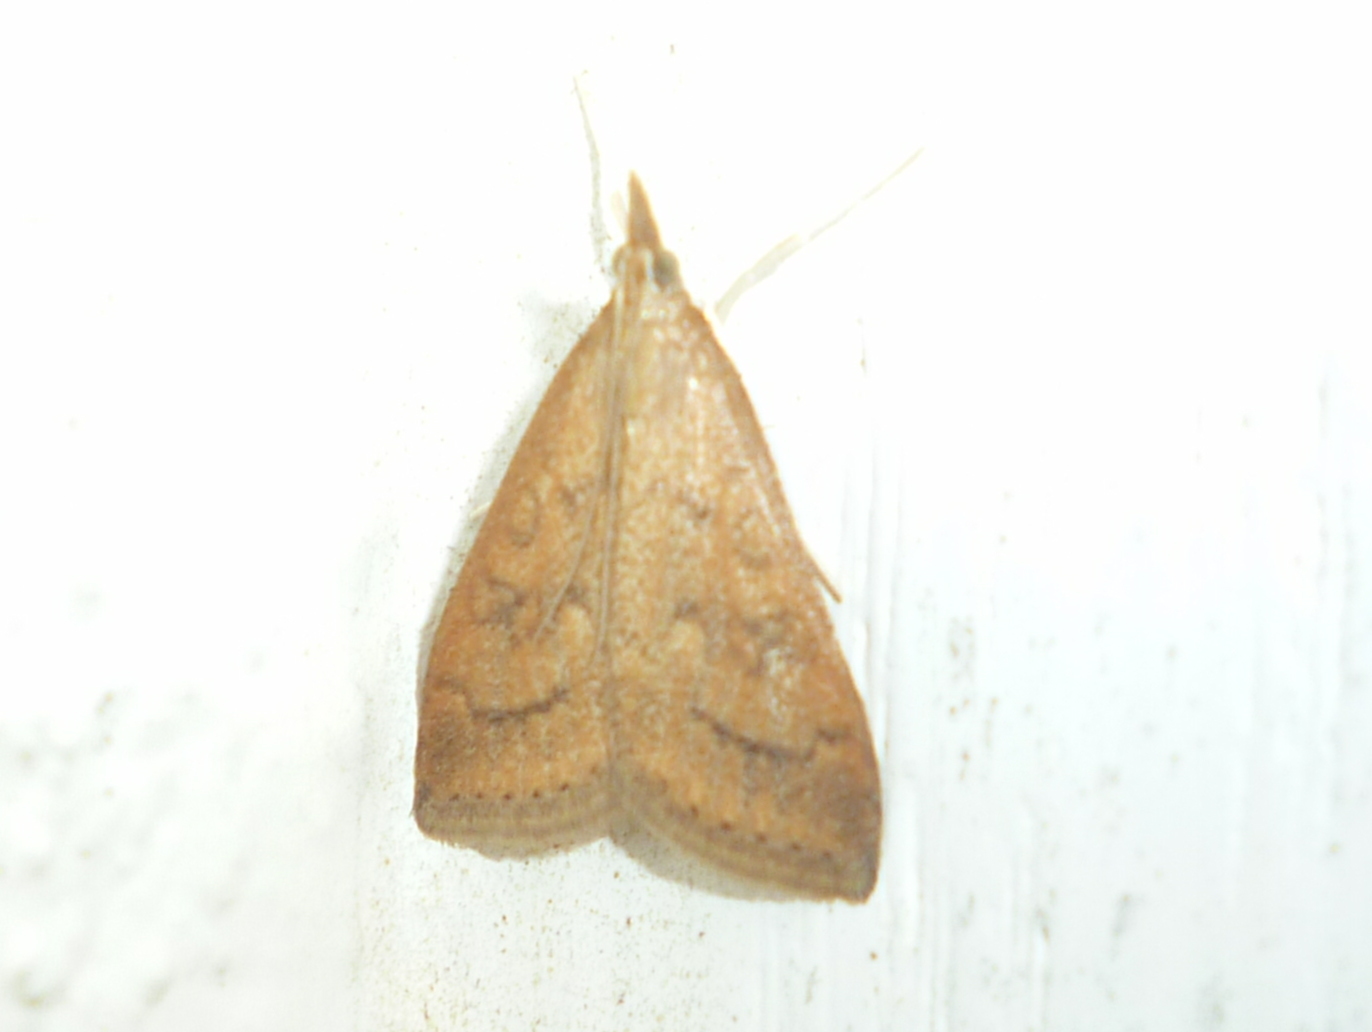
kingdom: Animalia
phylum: Arthropoda
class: Insecta
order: Lepidoptera
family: Crambidae
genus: Udea
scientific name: Udea rubigalis
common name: Celery leaftier moth
